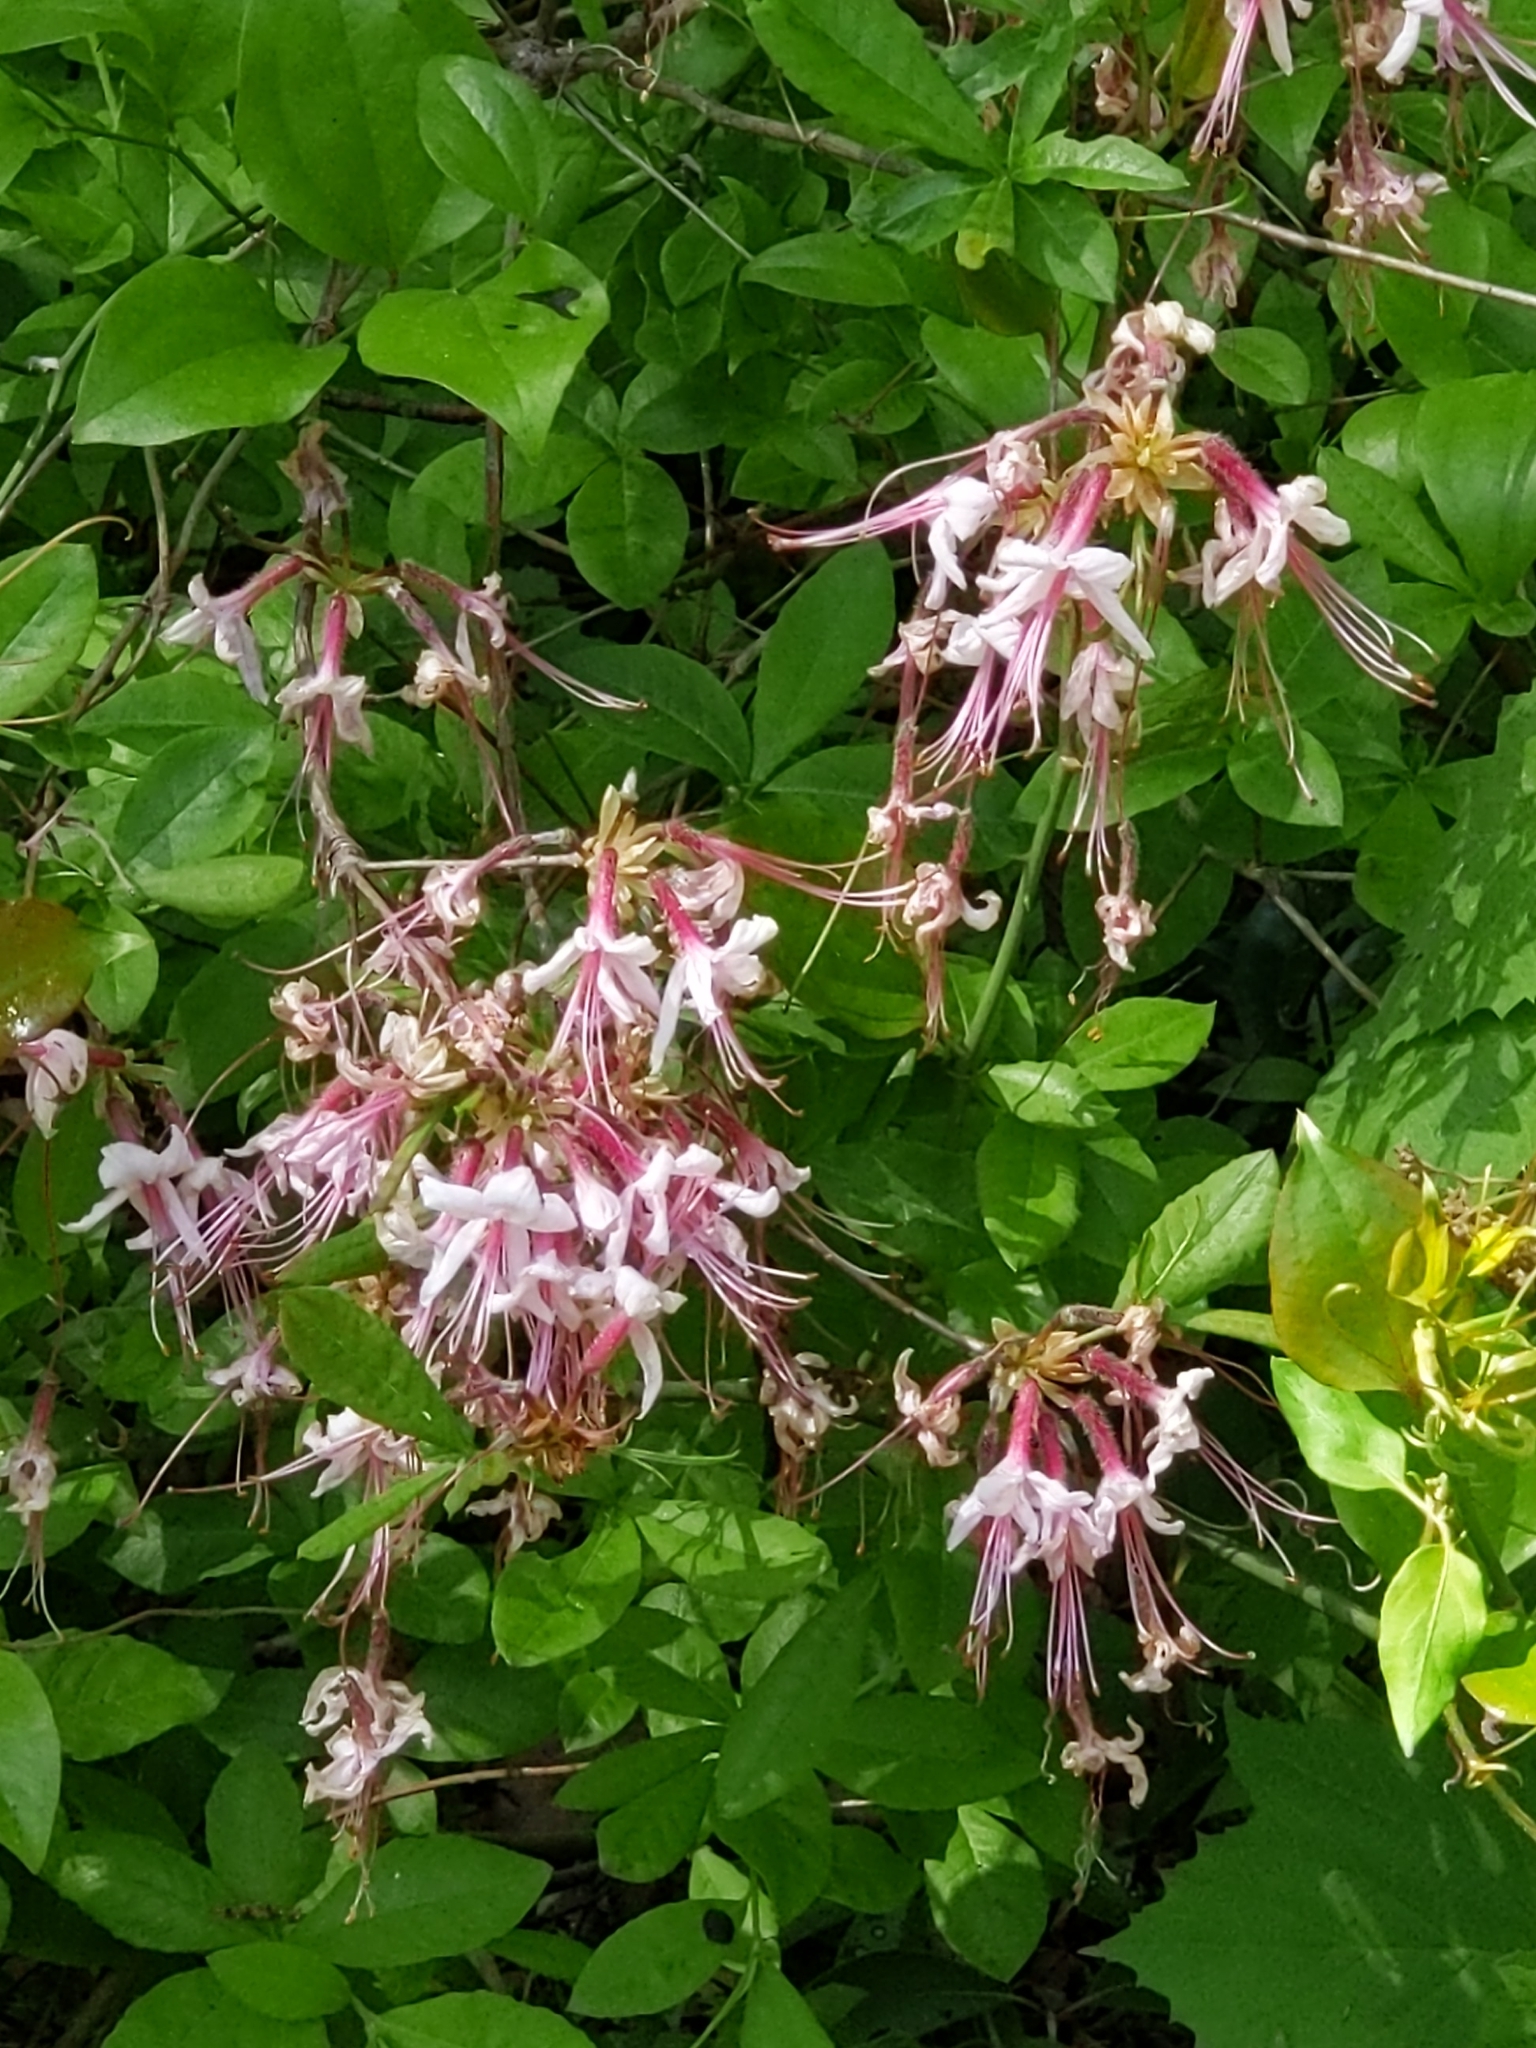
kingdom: Plantae
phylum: Tracheophyta
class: Magnoliopsida
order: Ericales
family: Ericaceae
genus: Rhododendron
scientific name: Rhododendron periclymenoides
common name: Election-pink
